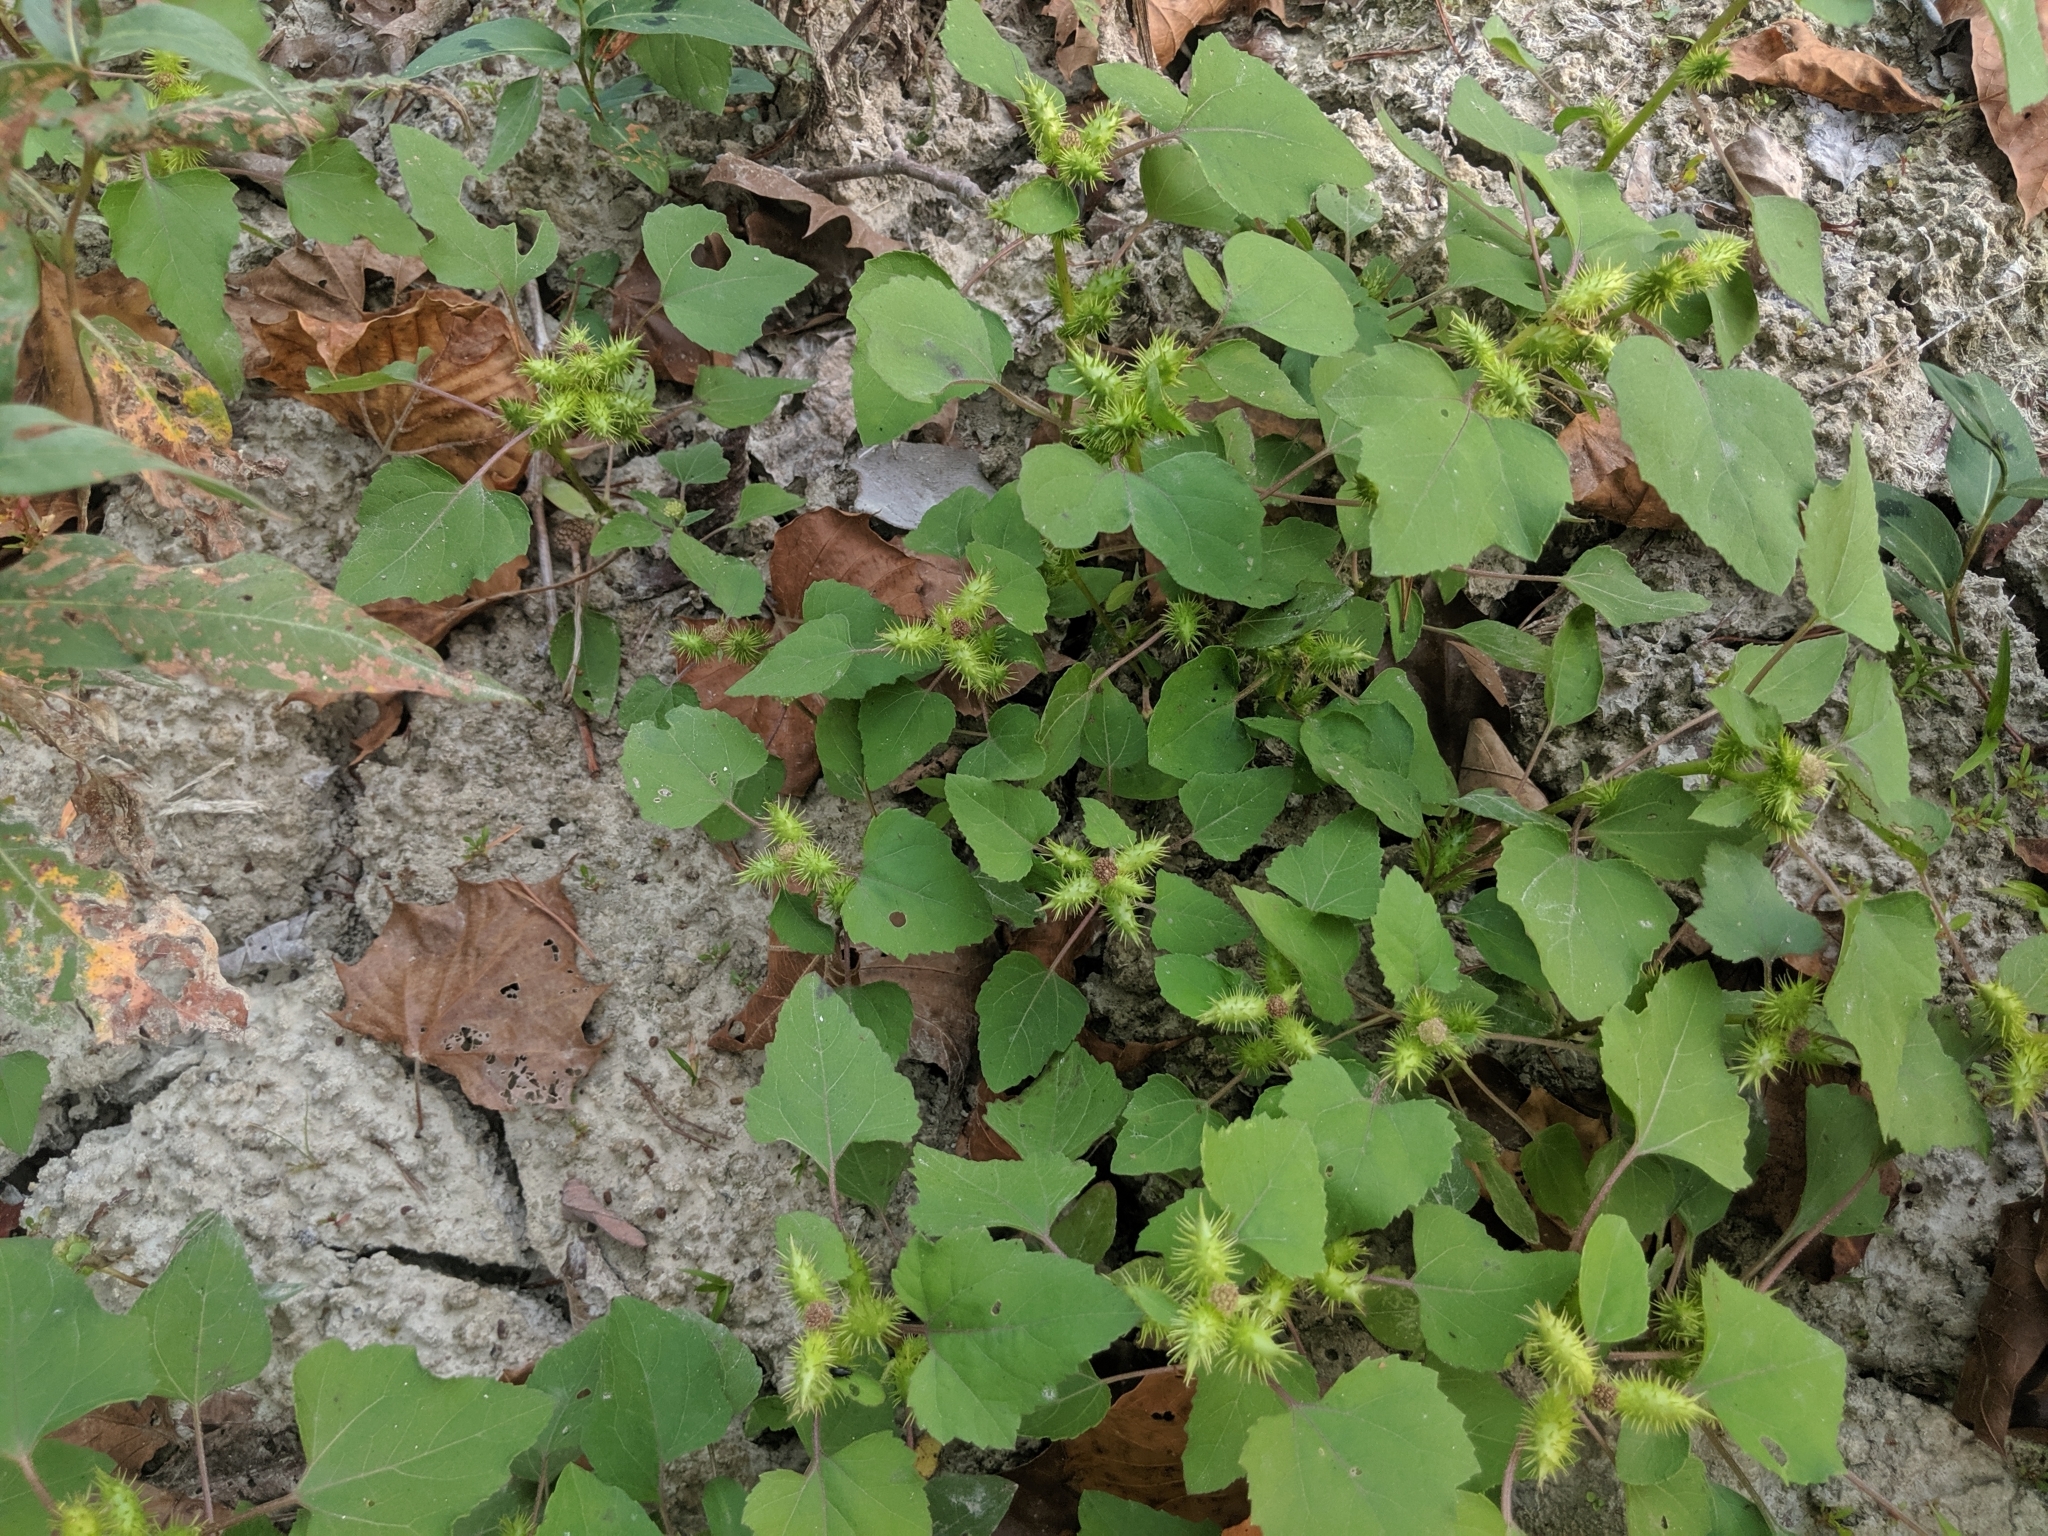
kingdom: Plantae
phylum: Tracheophyta
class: Magnoliopsida
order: Asterales
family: Asteraceae
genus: Xanthium
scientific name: Xanthium strumarium
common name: Rough cocklebur
